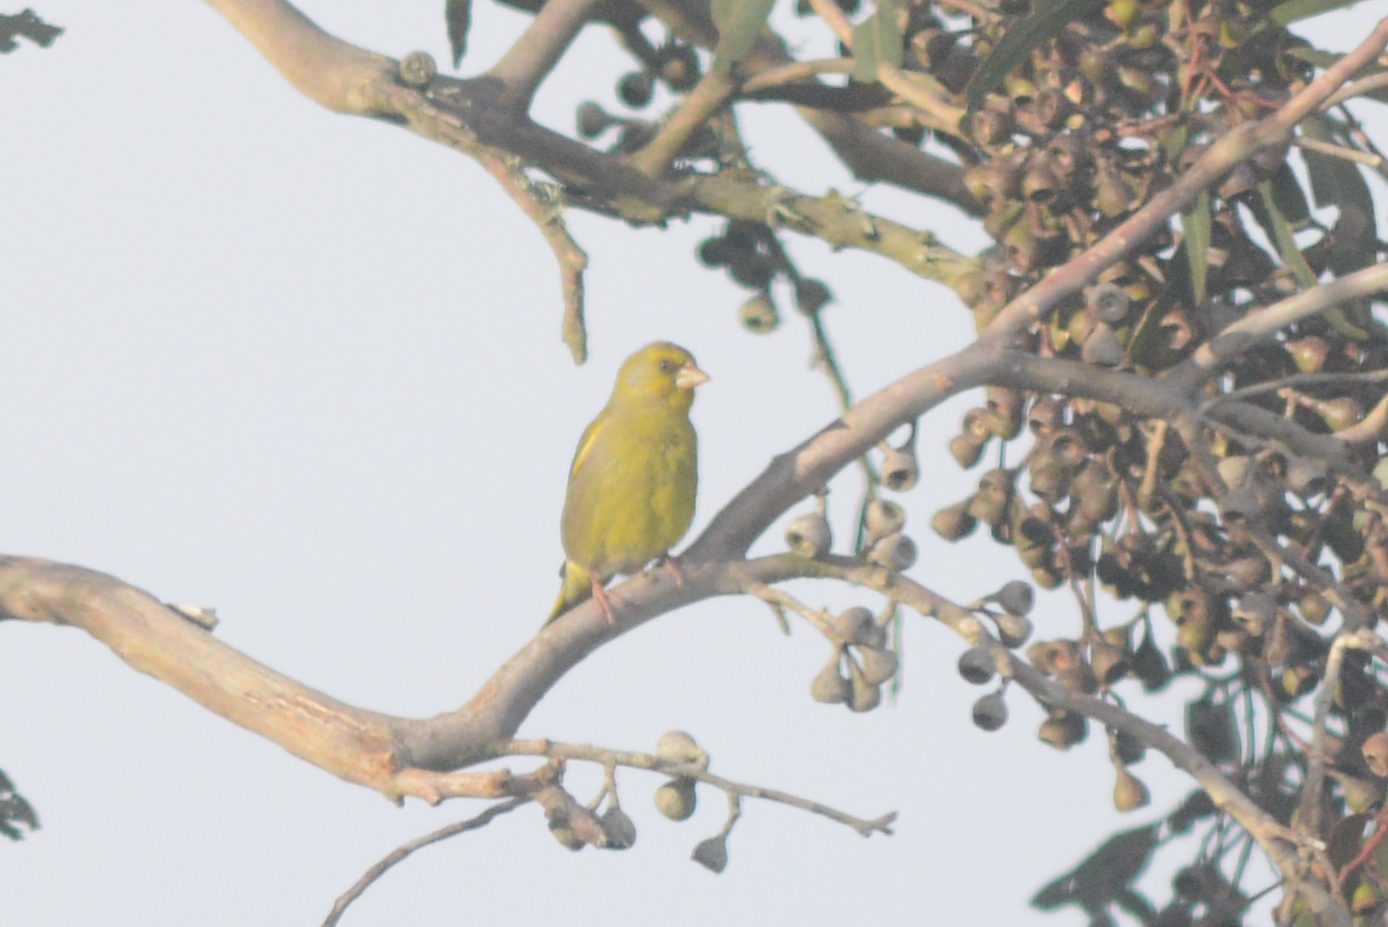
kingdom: Plantae
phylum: Tracheophyta
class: Liliopsida
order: Poales
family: Poaceae
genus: Chloris
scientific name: Chloris chloris
